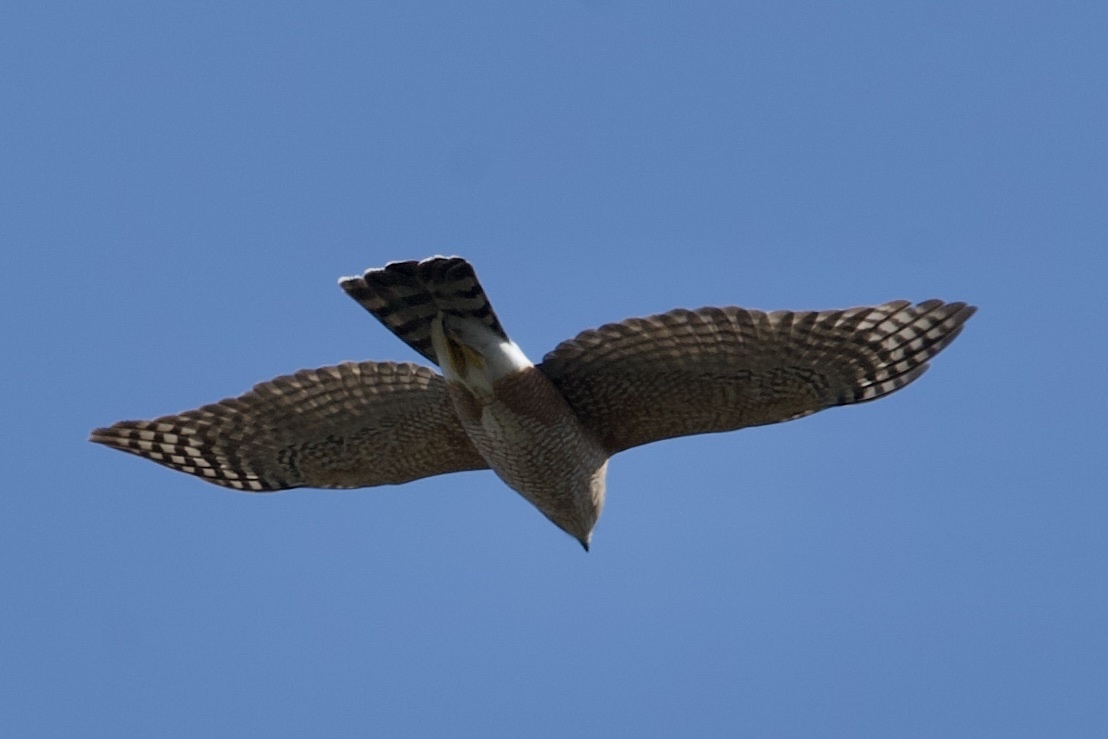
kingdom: Animalia
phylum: Chordata
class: Aves
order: Accipitriformes
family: Accipitridae
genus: Accipiter
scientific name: Accipiter cooperii
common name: Cooper's hawk
